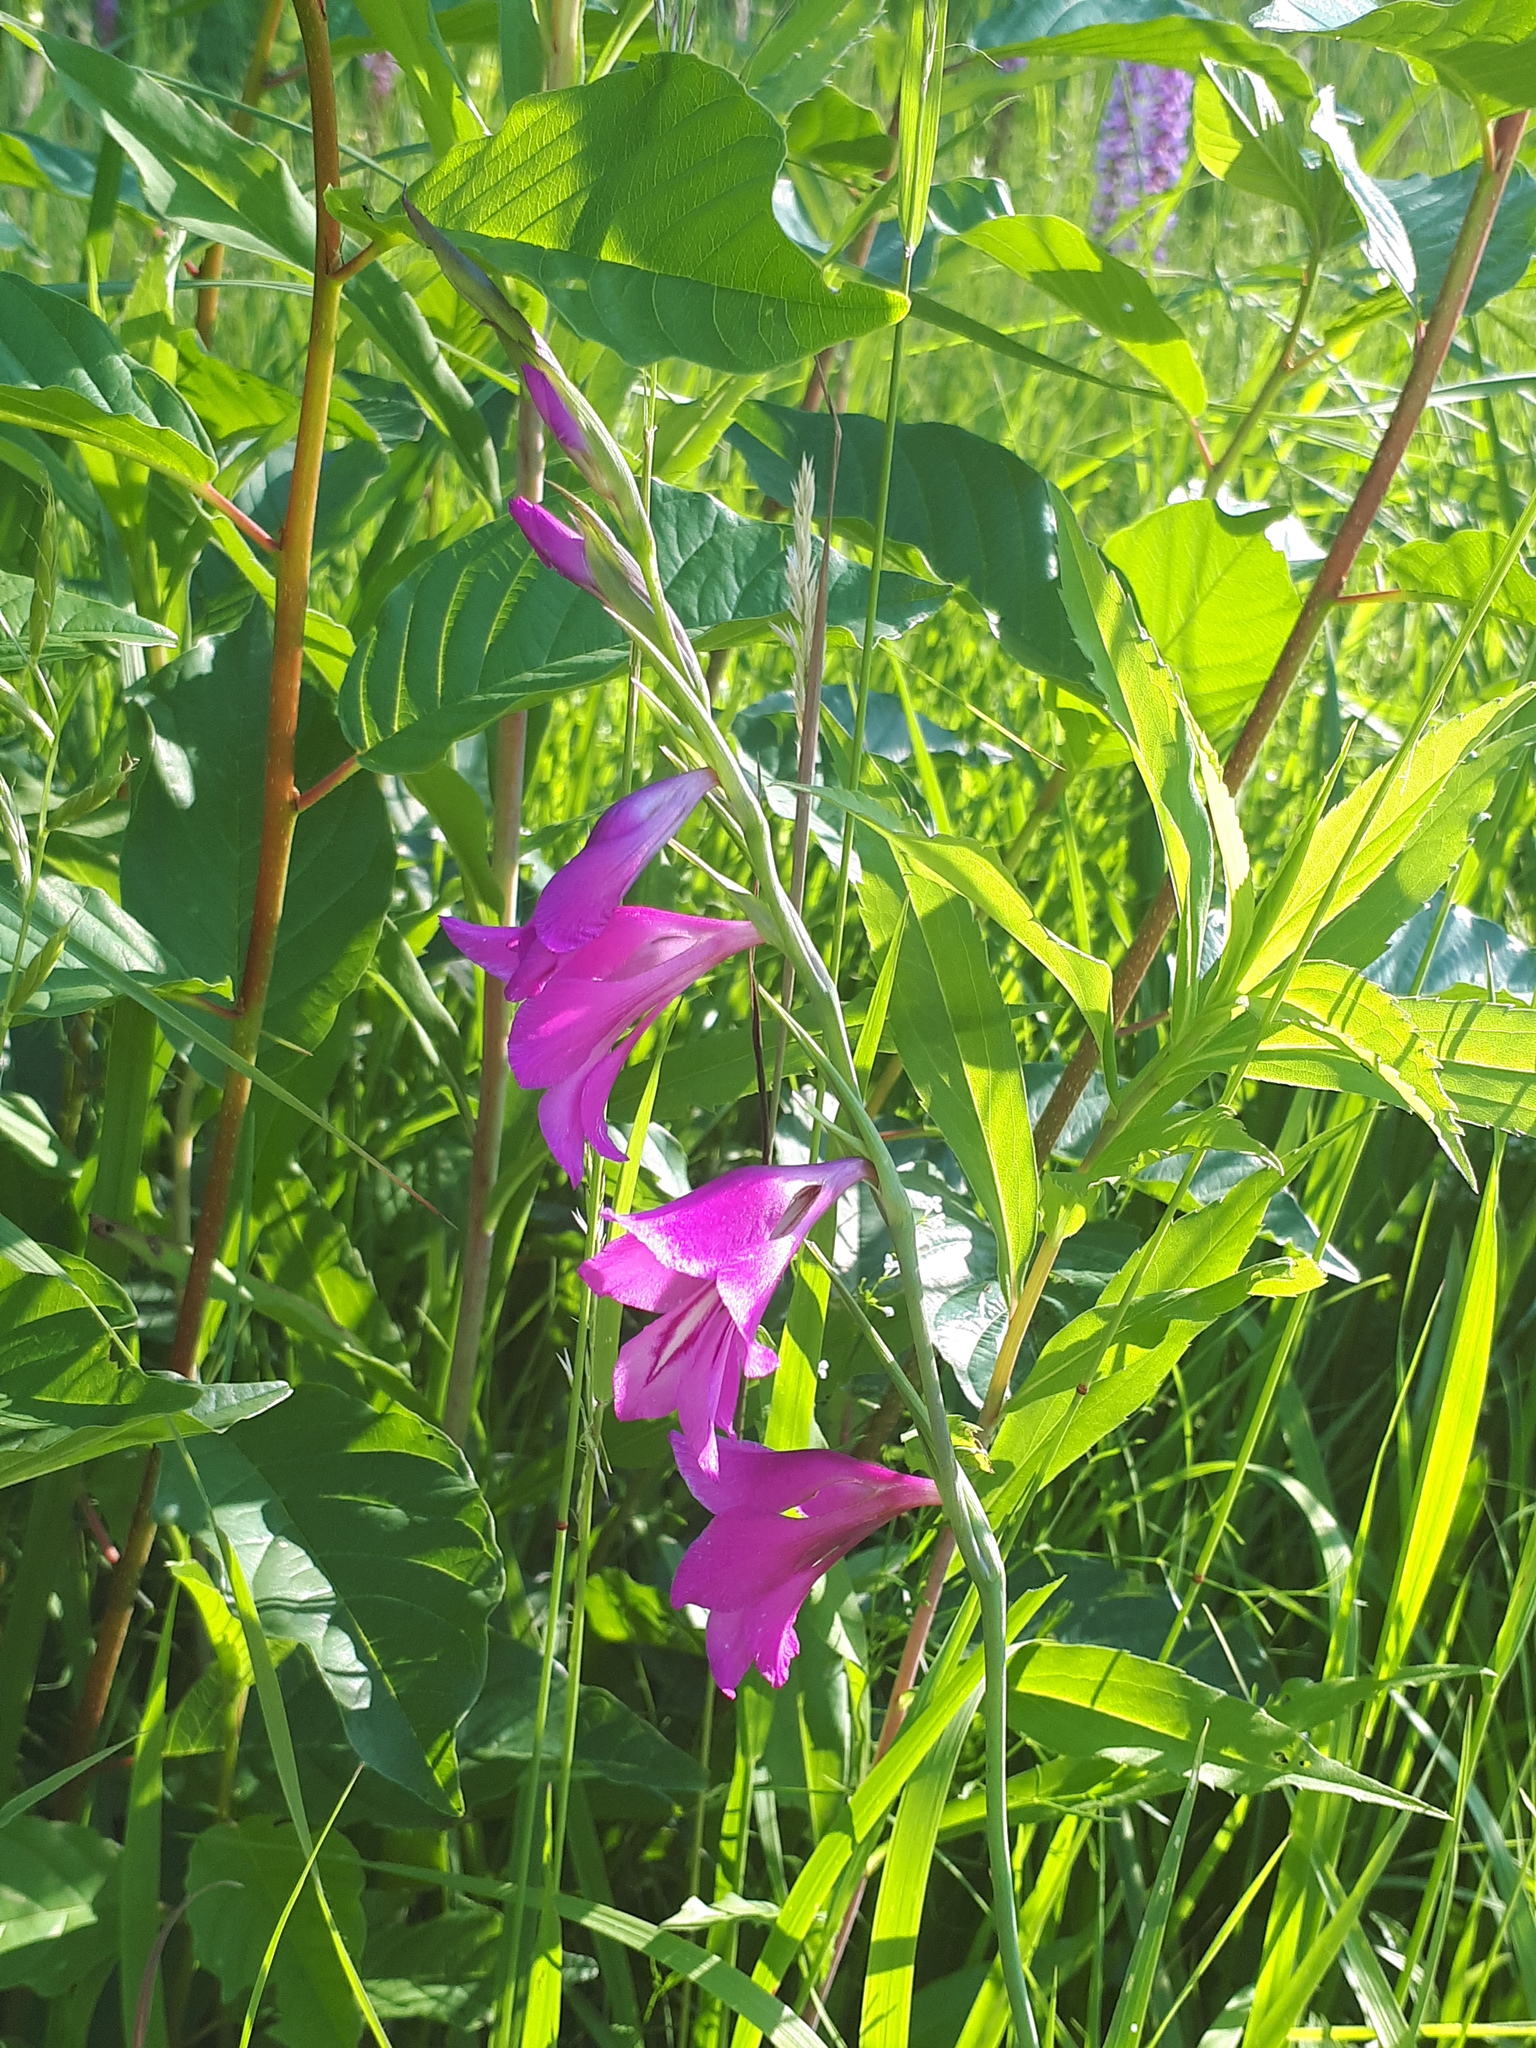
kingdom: Plantae
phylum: Tracheophyta
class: Liliopsida
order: Asparagales
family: Iridaceae
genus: Gladiolus
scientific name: Gladiolus palustris
